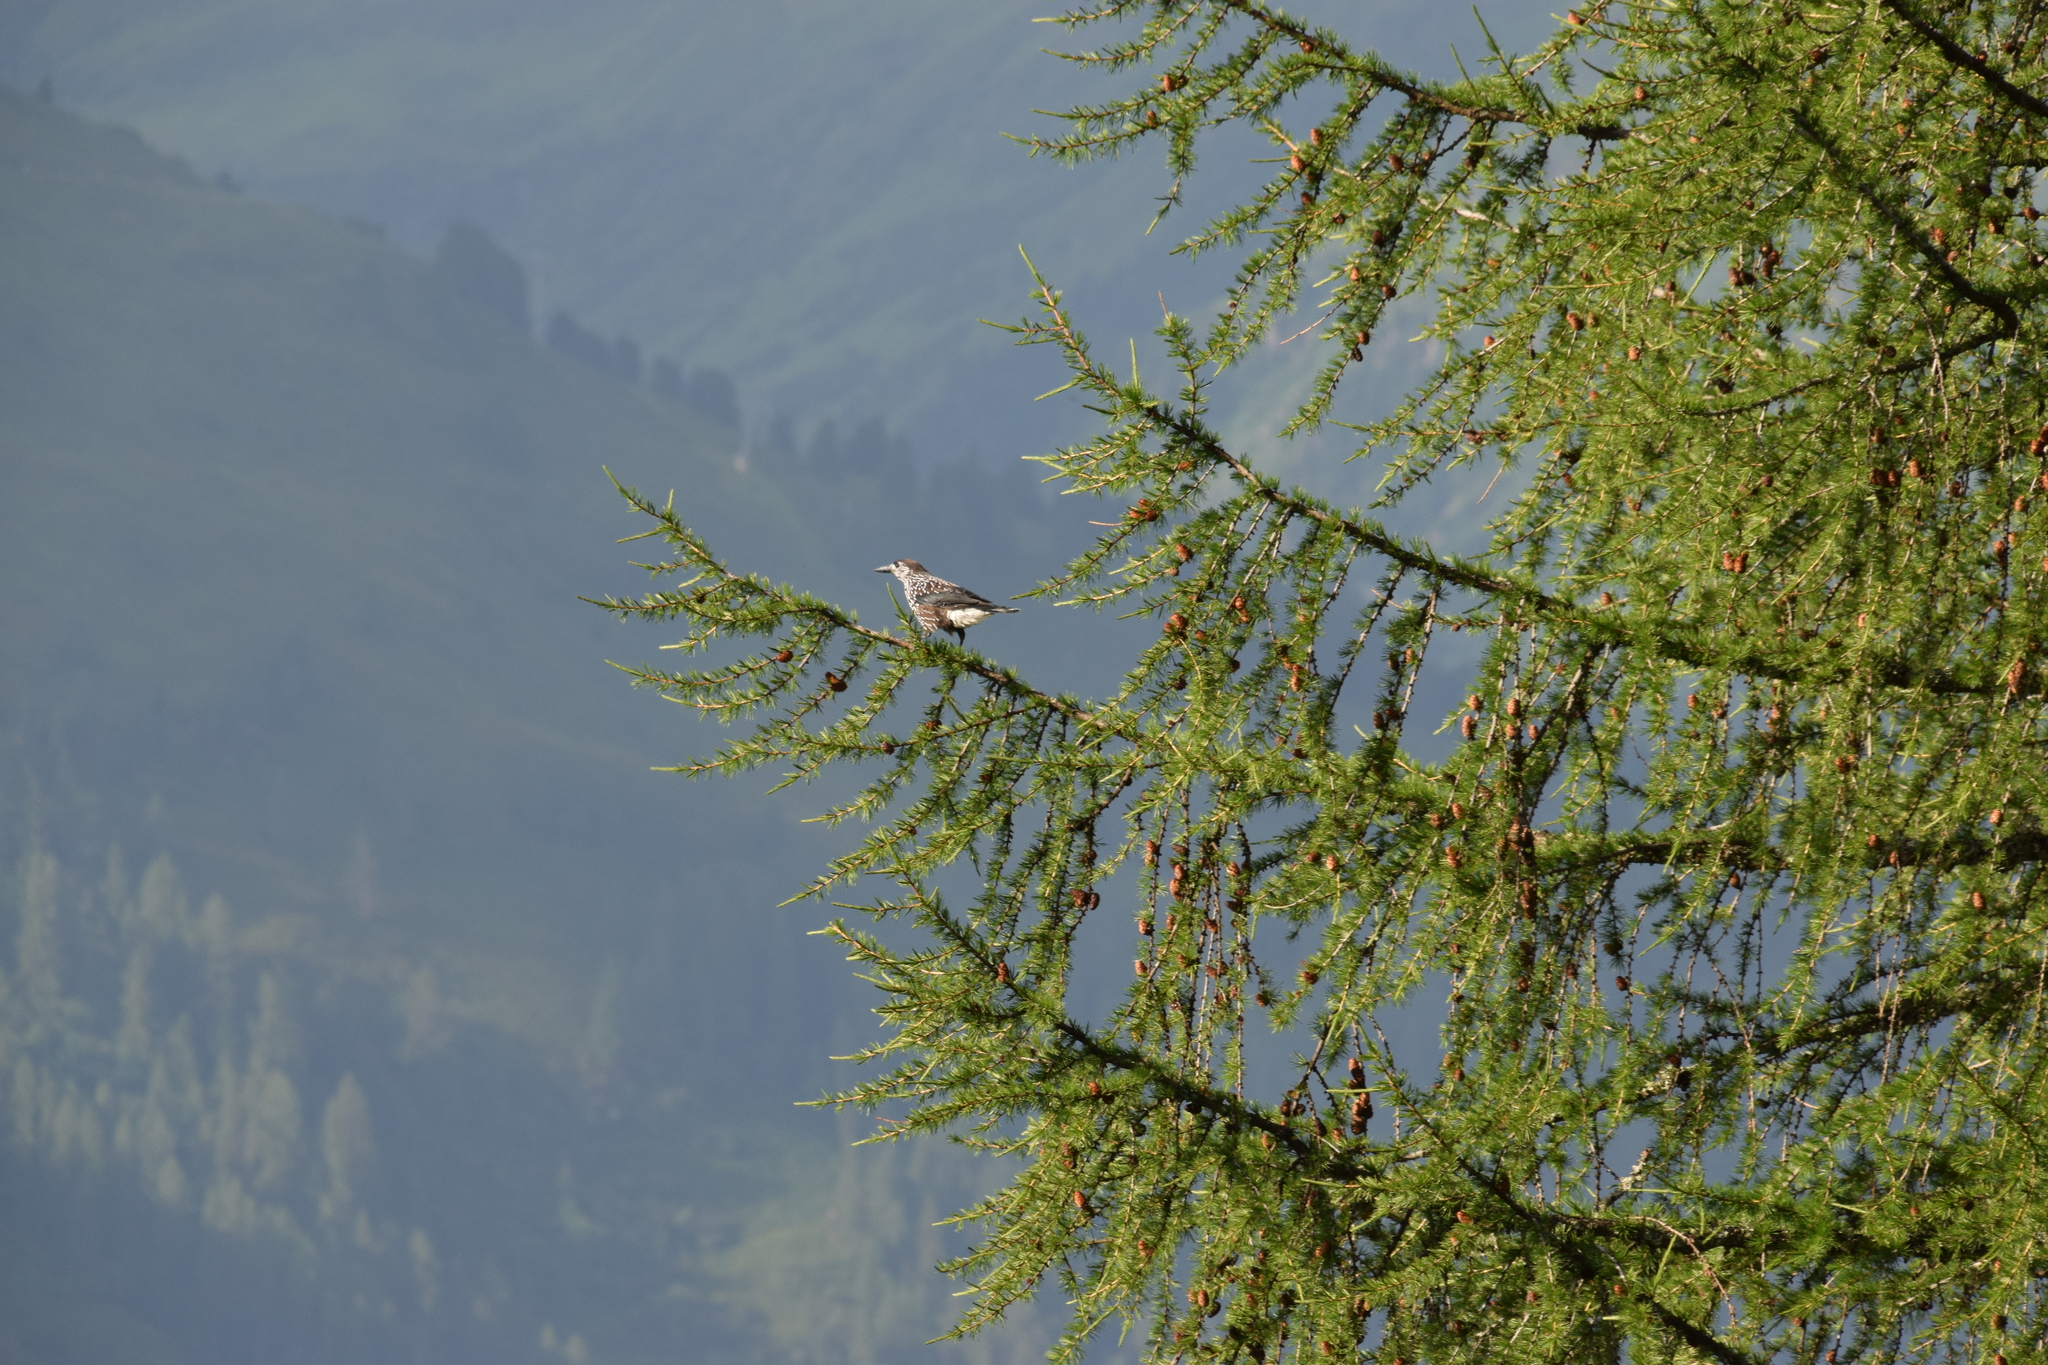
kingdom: Animalia
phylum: Chordata
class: Aves
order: Passeriformes
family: Corvidae
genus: Nucifraga
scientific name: Nucifraga caryocatactes
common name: Spotted nutcracker
